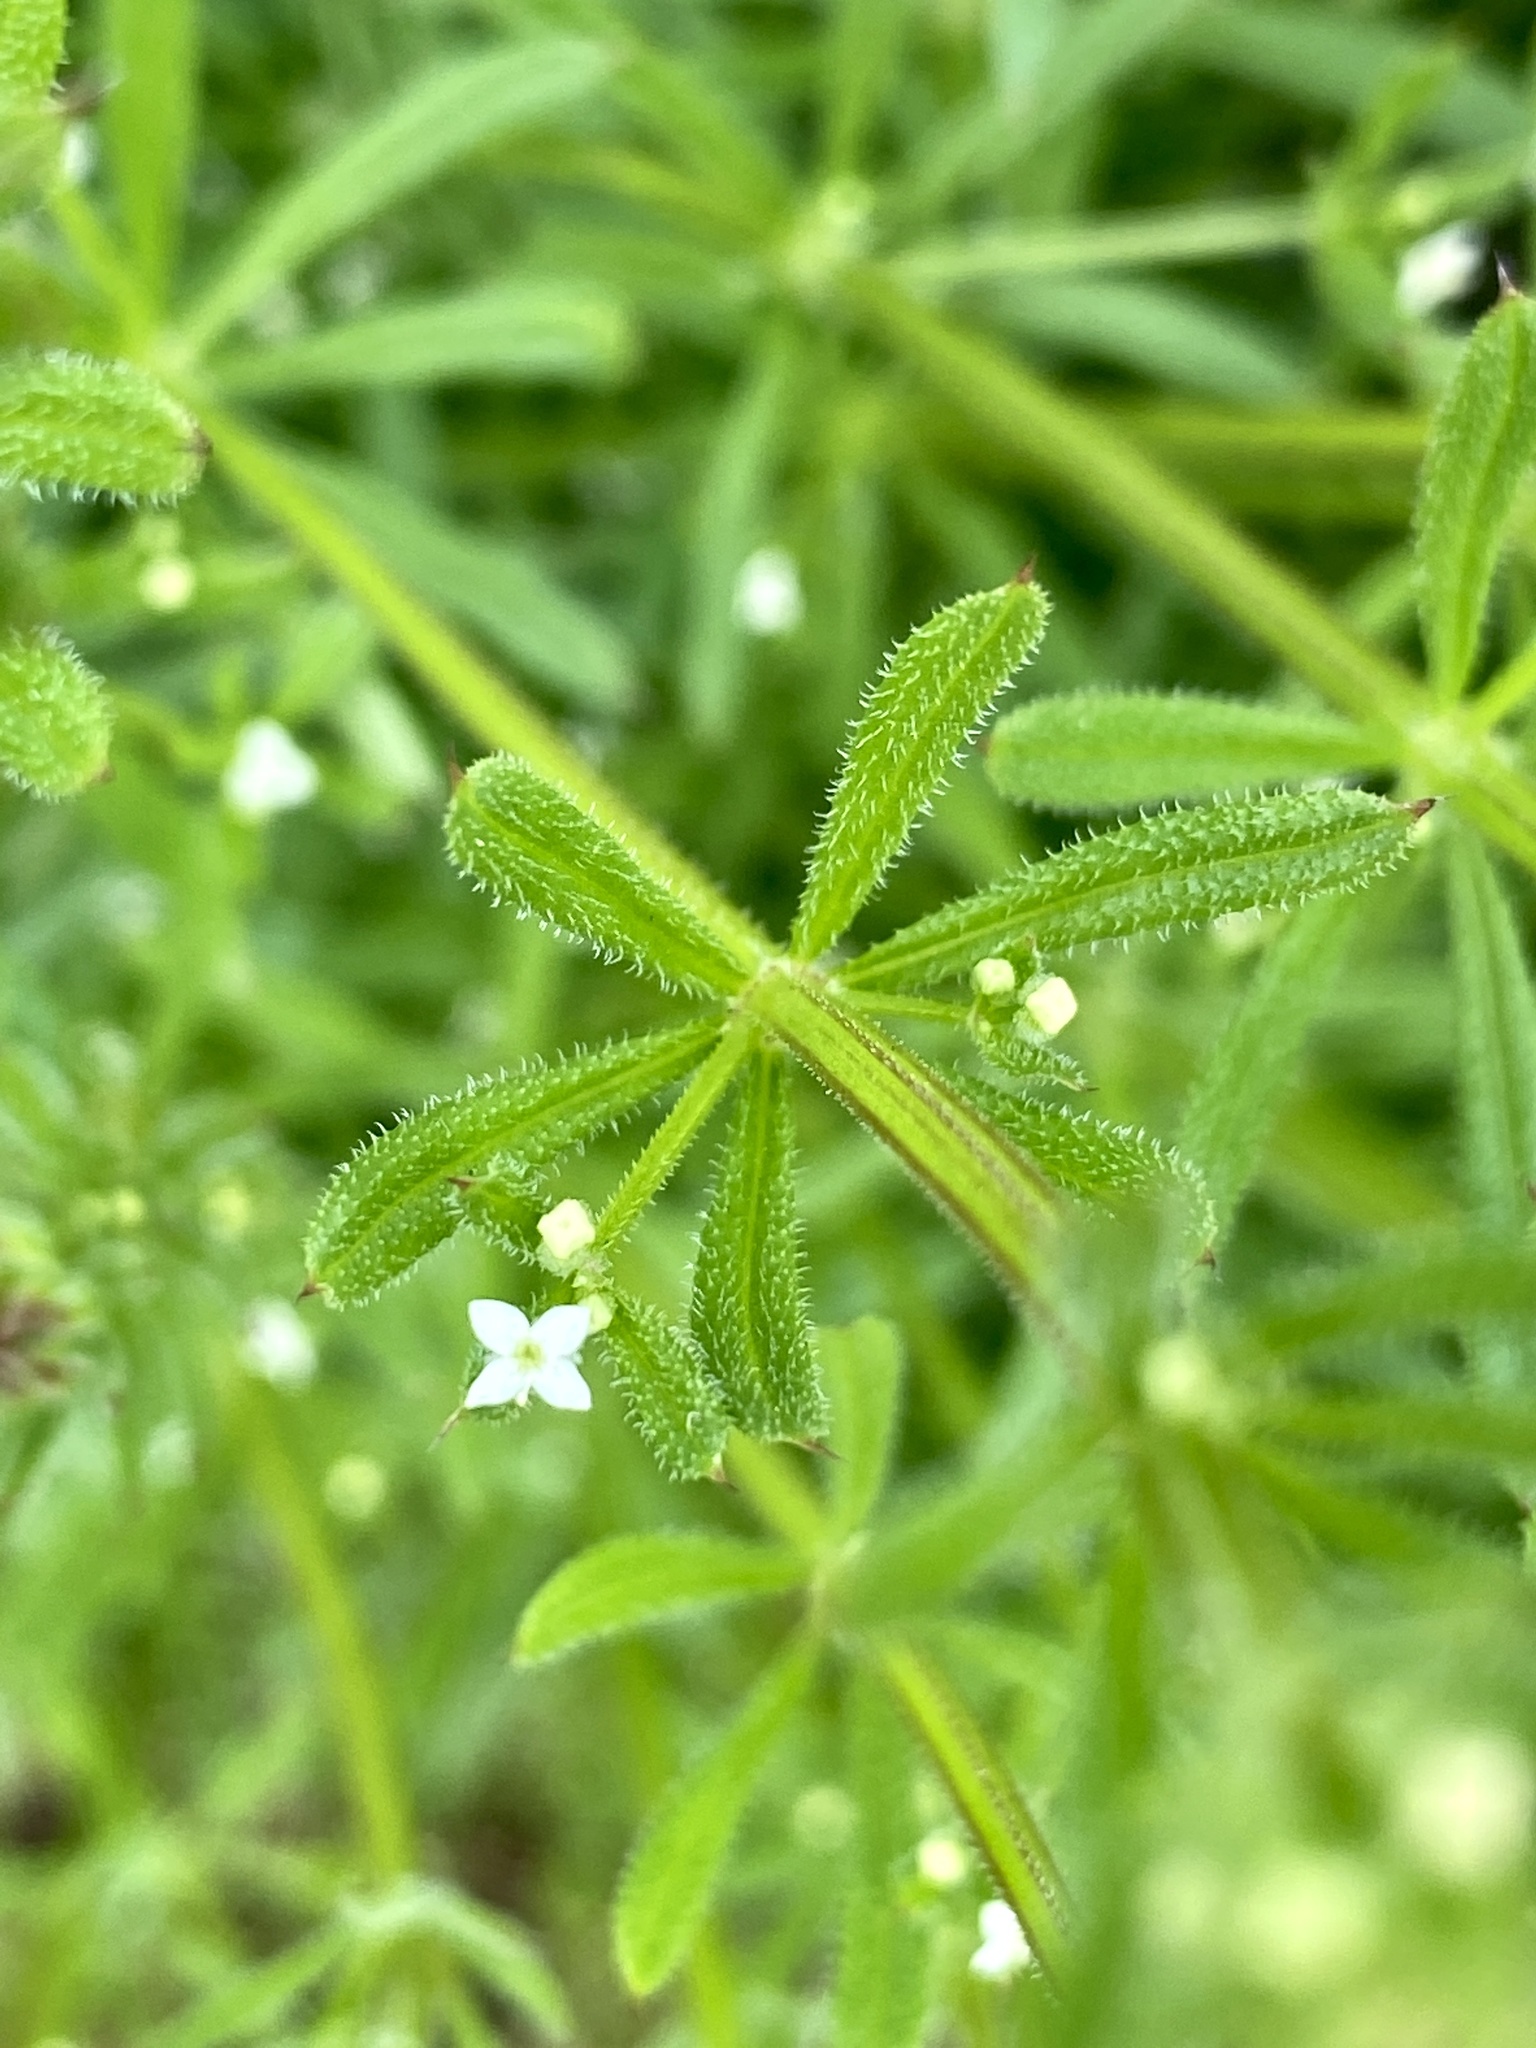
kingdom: Plantae
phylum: Tracheophyta
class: Magnoliopsida
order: Gentianales
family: Rubiaceae
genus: Galium
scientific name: Galium aparine
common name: Cleavers
